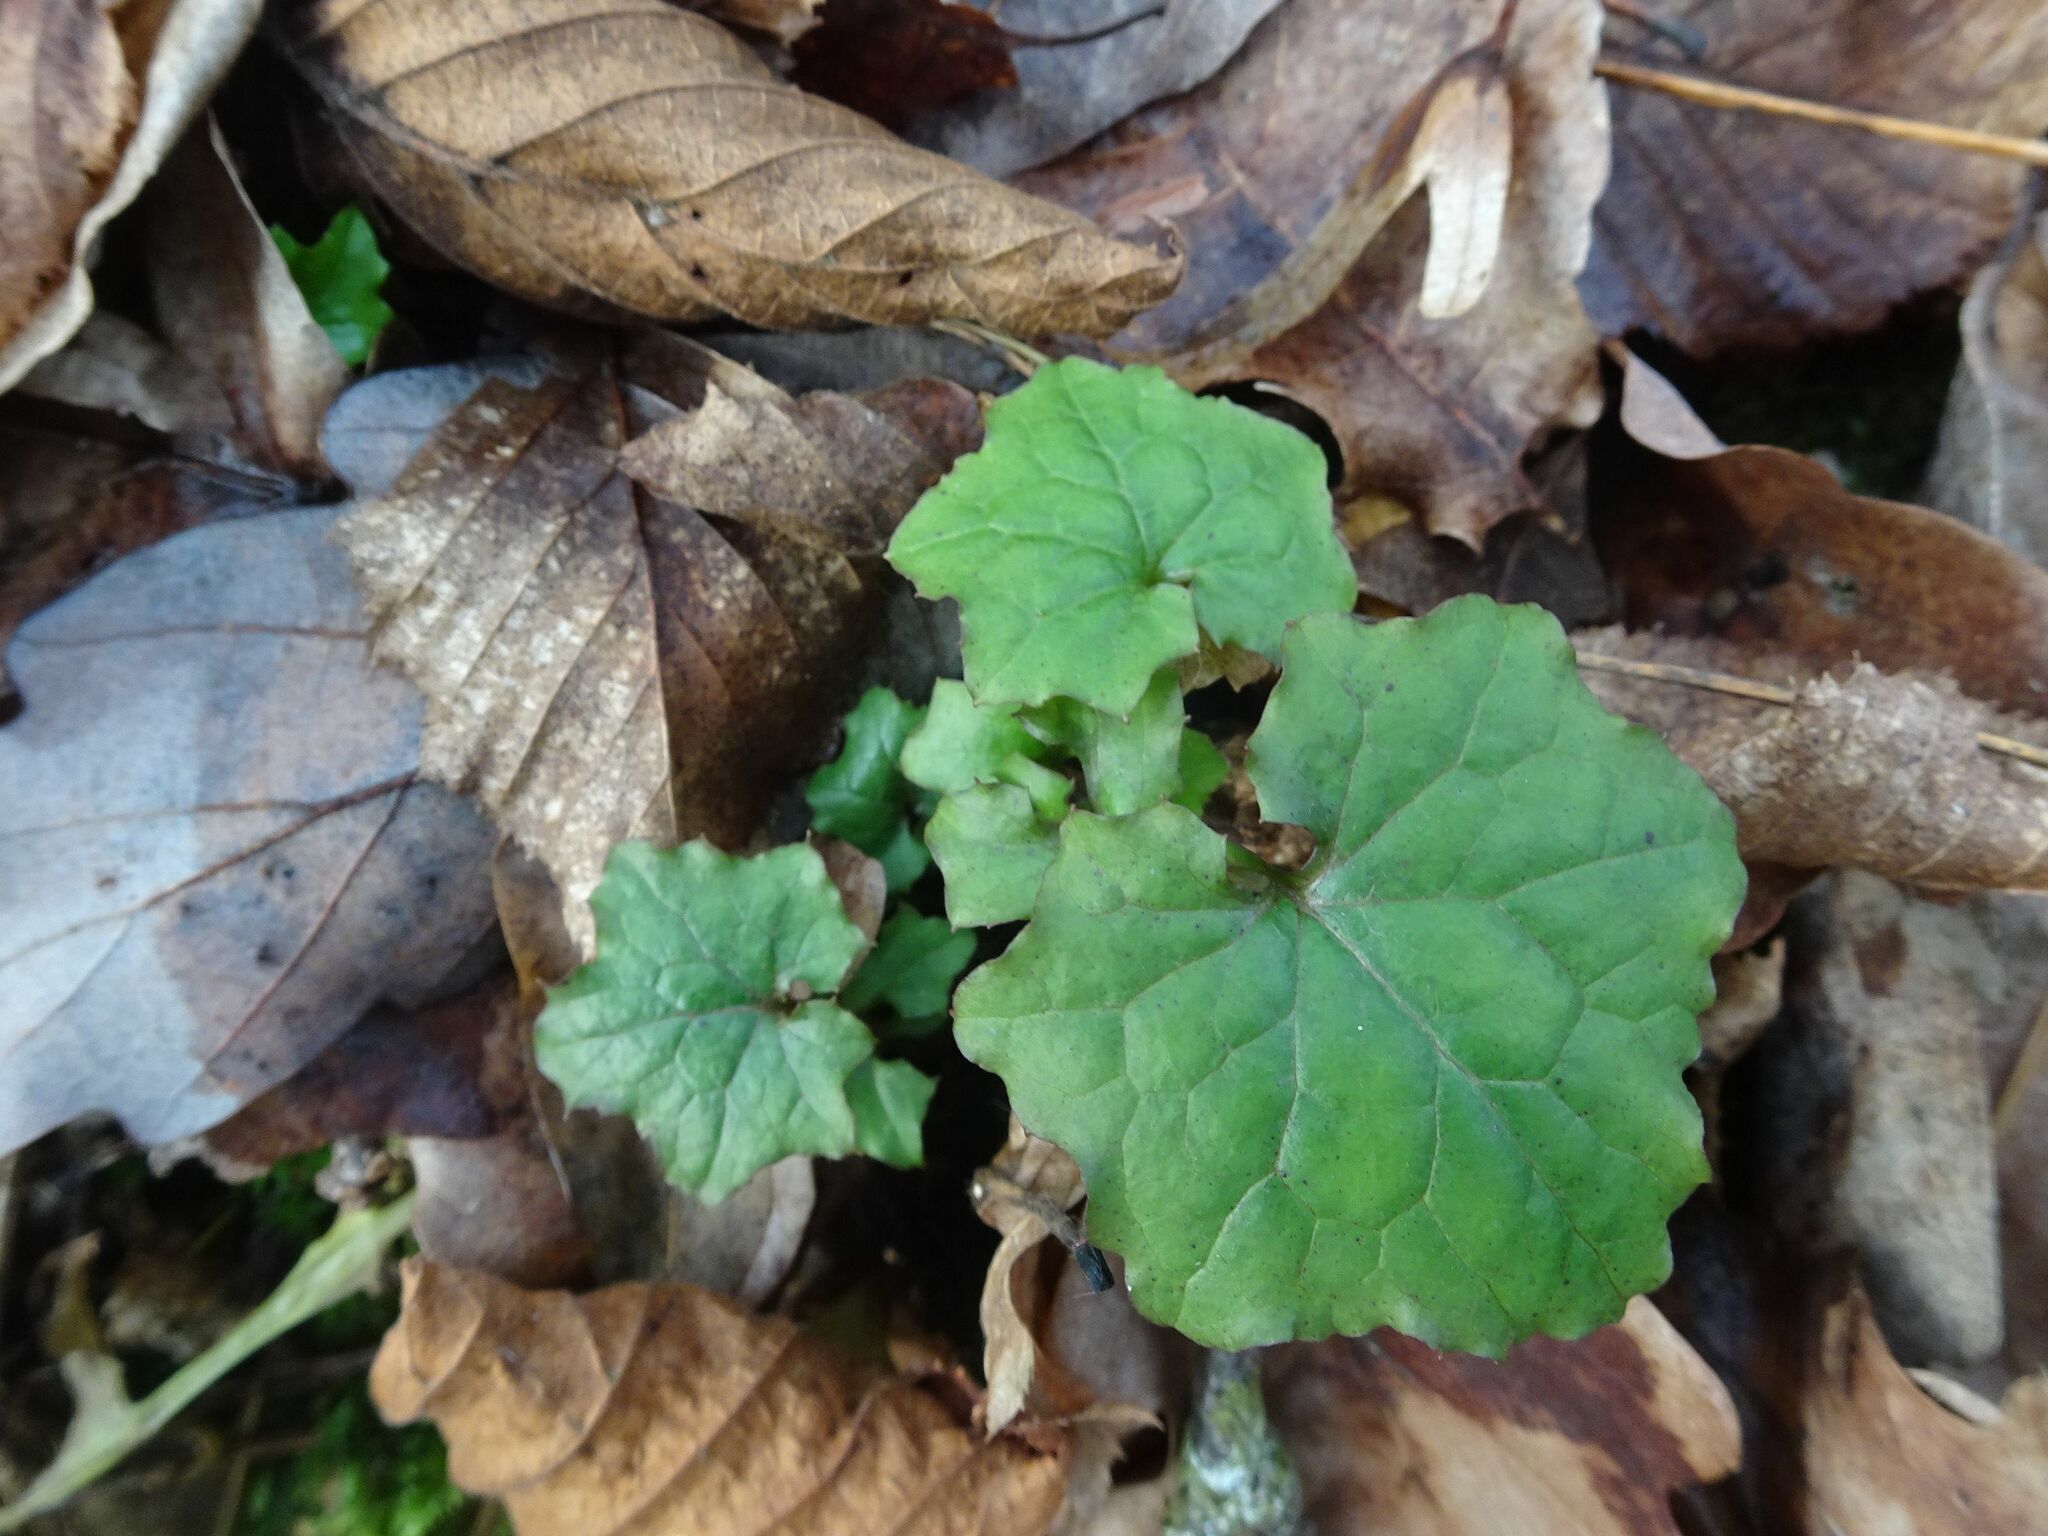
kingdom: Plantae
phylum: Tracheophyta
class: Magnoliopsida
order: Asterales
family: Asteraceae
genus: Mycelis
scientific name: Mycelis muralis
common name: Wall lettuce
